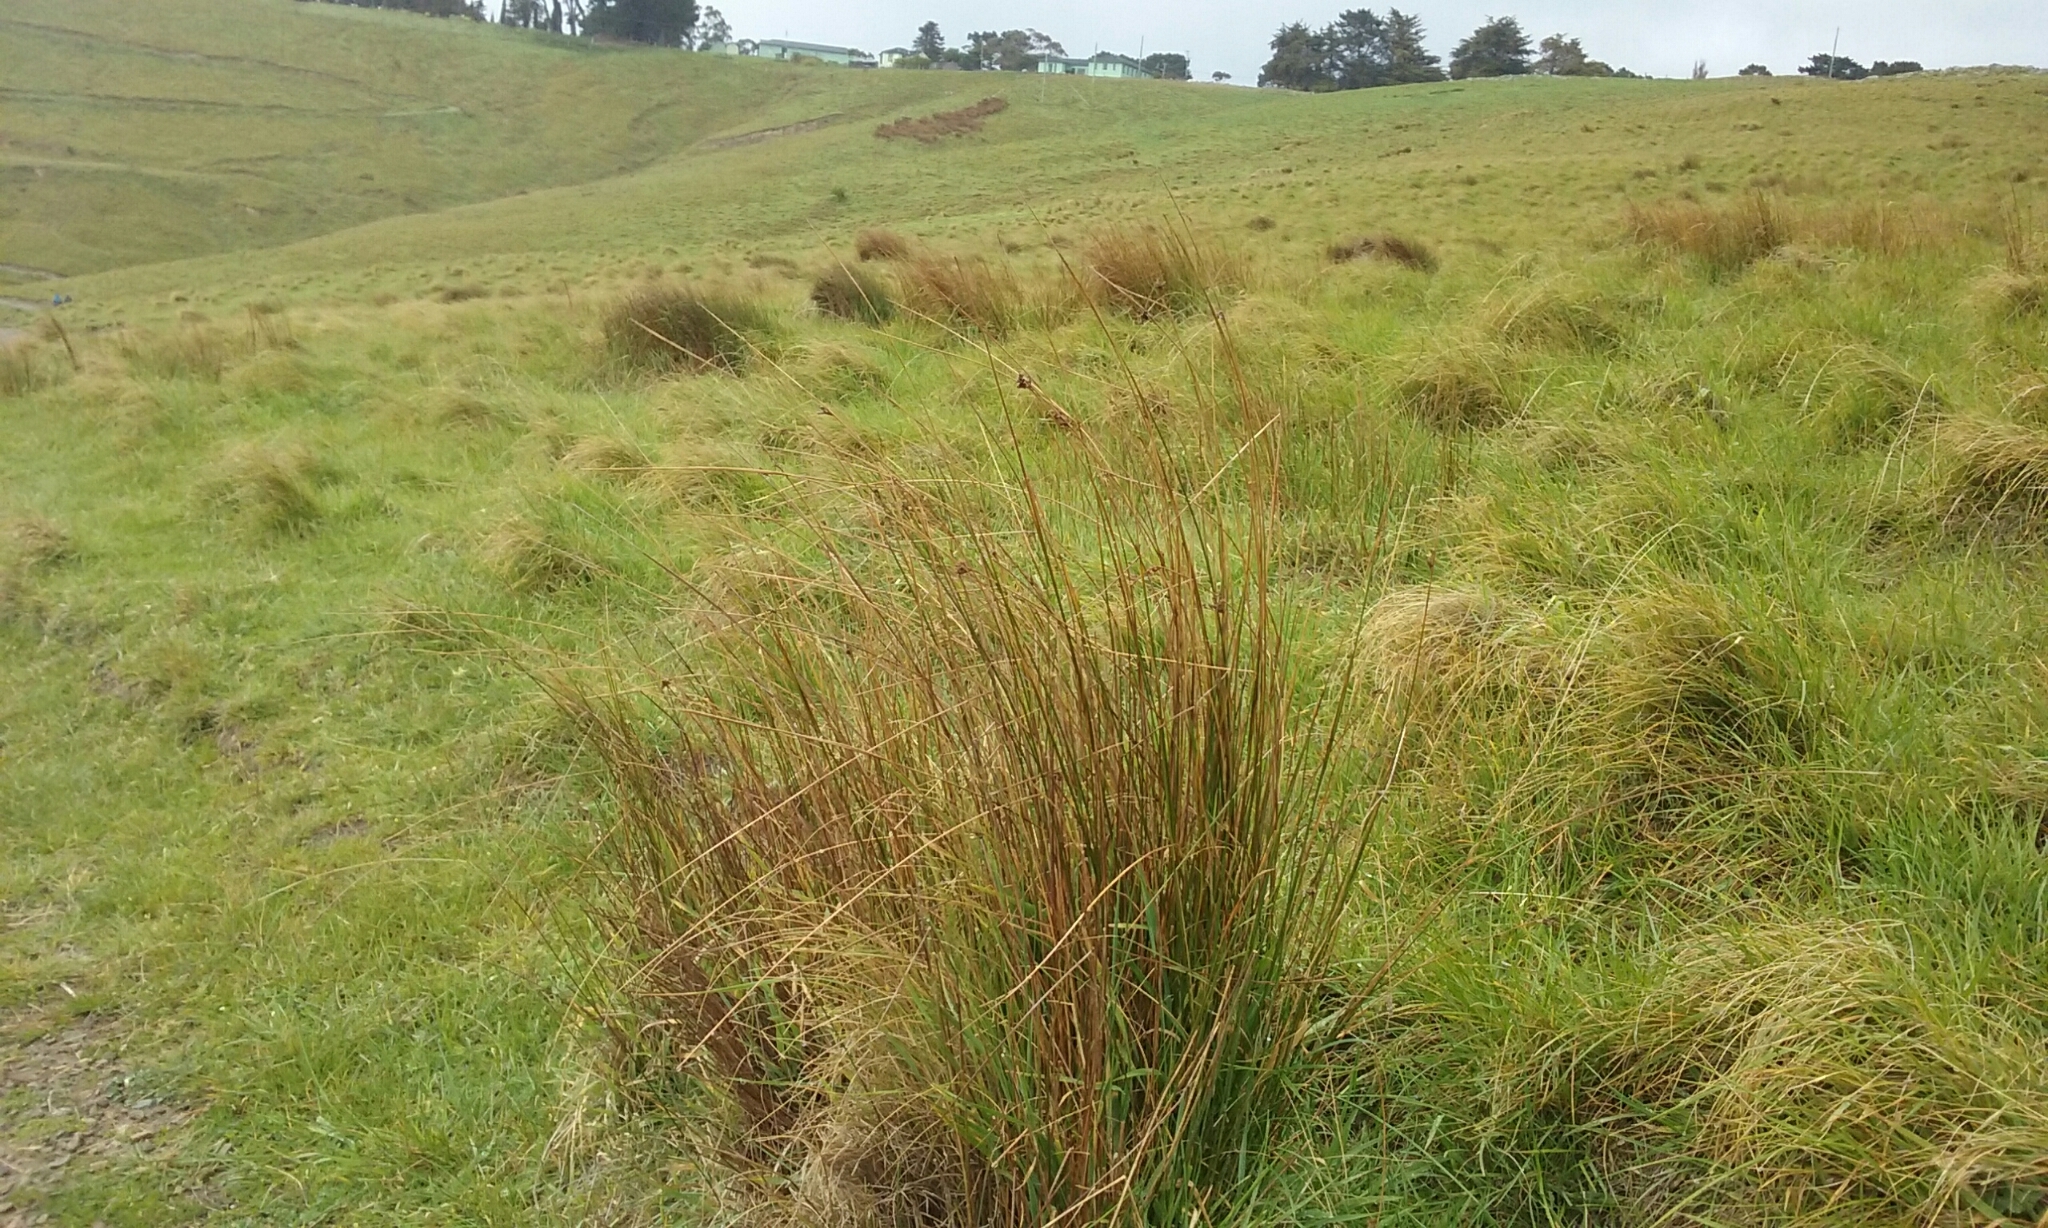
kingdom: Plantae
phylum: Tracheophyta
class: Liliopsida
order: Poales
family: Juncaceae
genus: Juncus
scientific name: Juncus distegus
